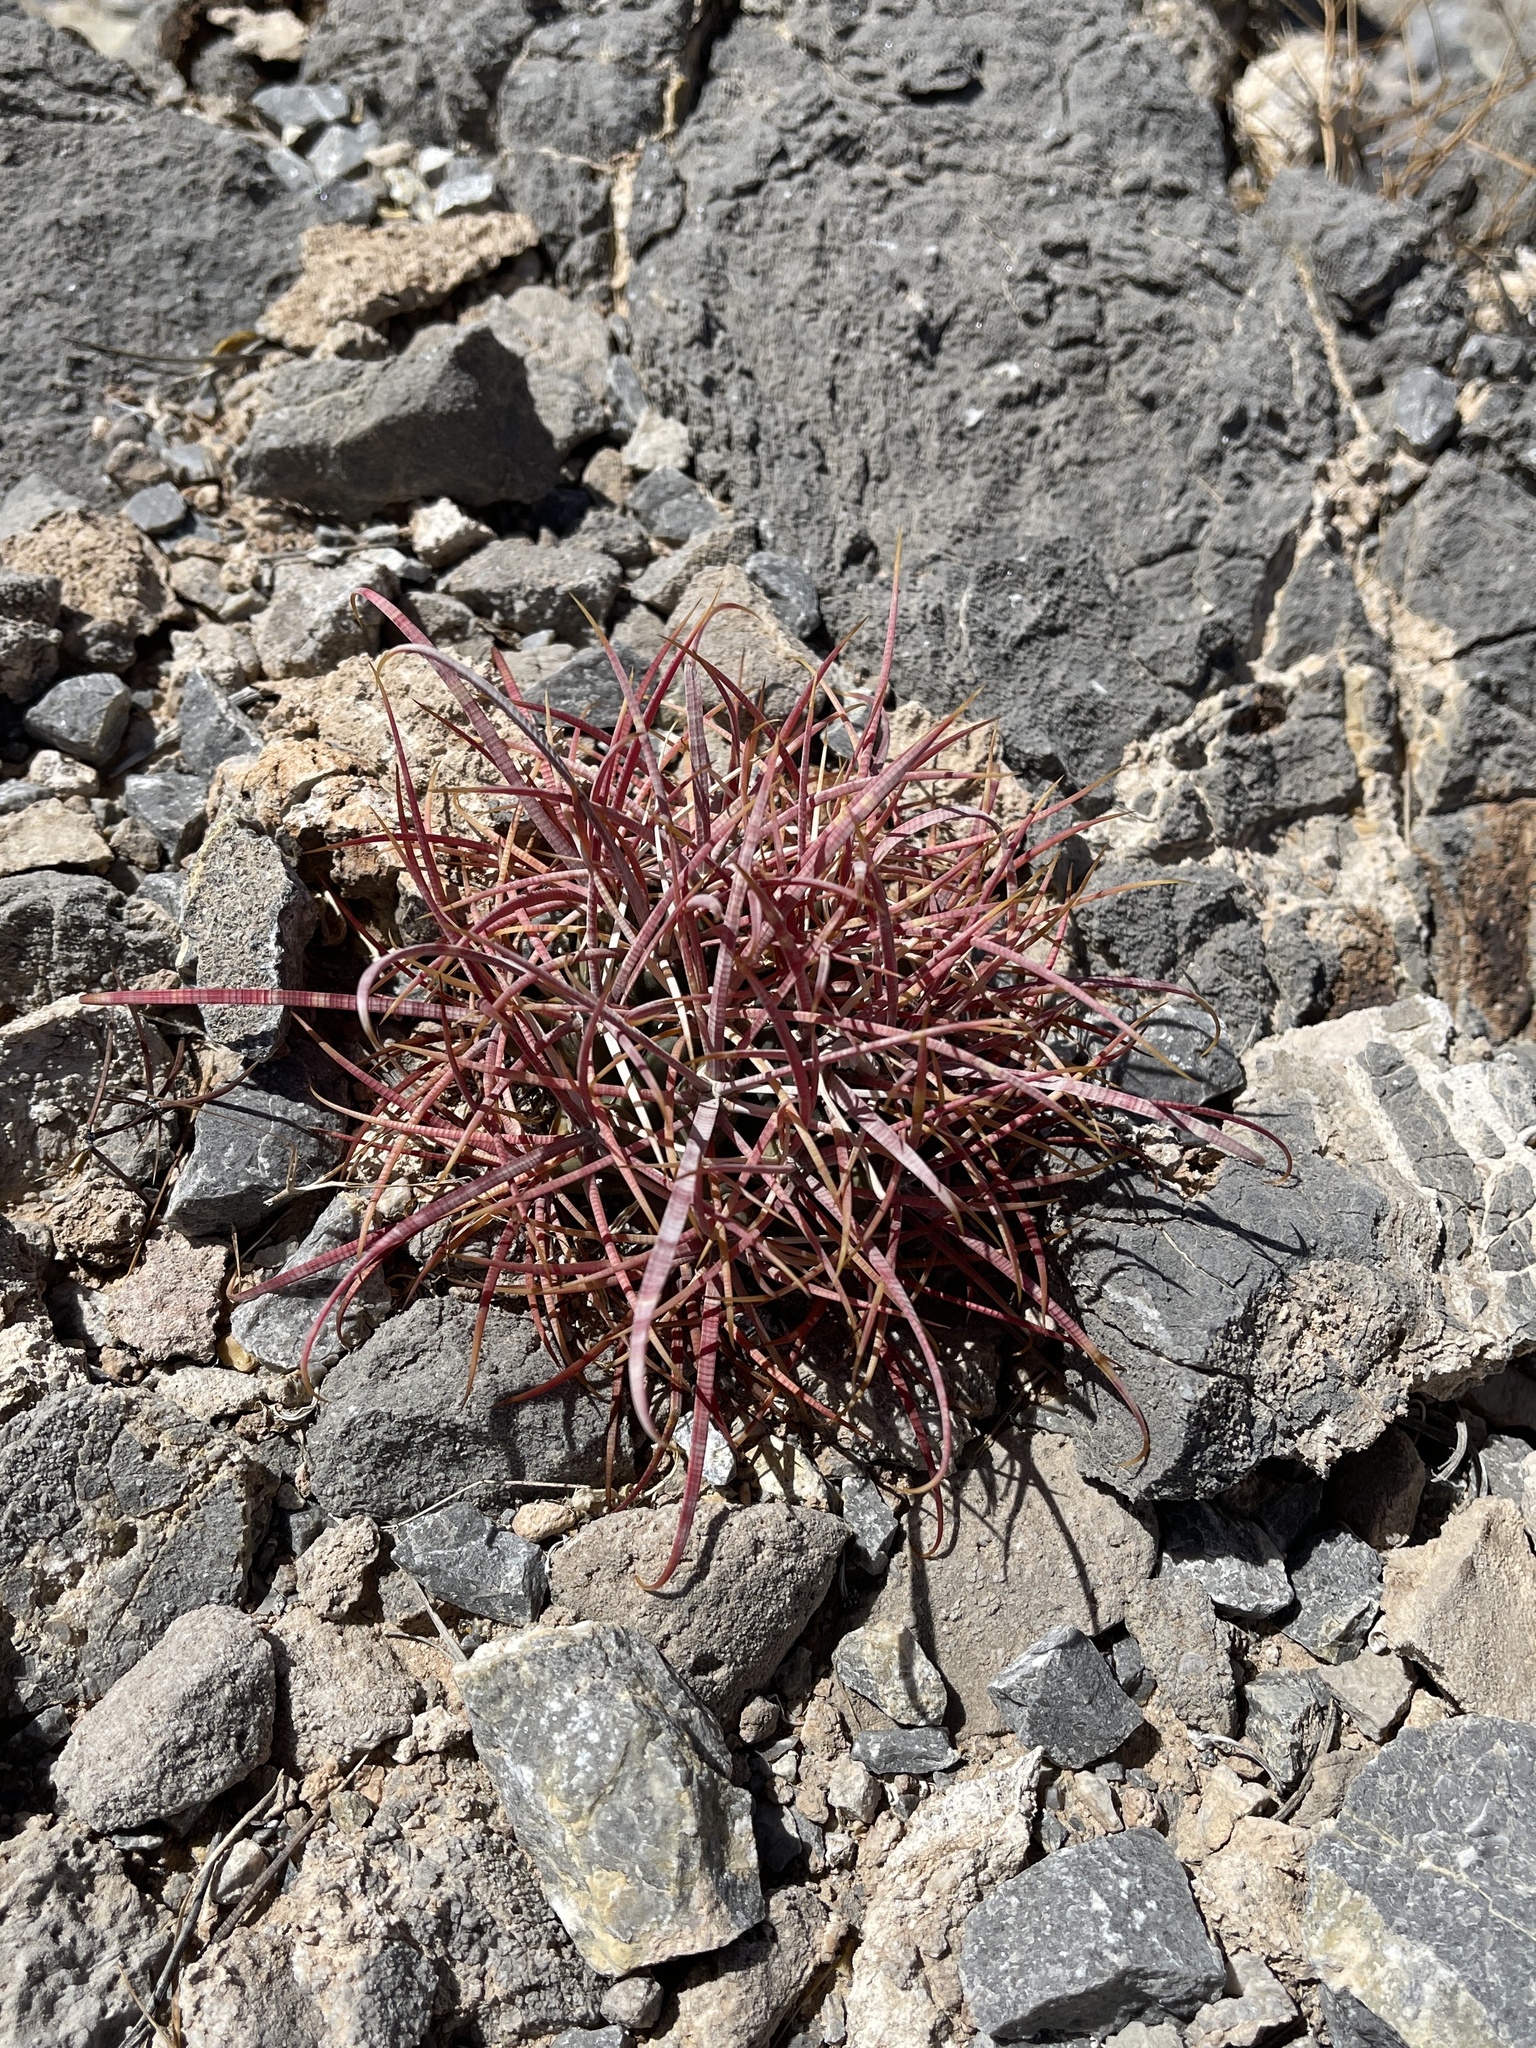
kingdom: Plantae
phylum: Tracheophyta
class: Magnoliopsida
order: Caryophyllales
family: Cactaceae
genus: Ferocactus
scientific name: Ferocactus cylindraceus
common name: California barrel cactus
